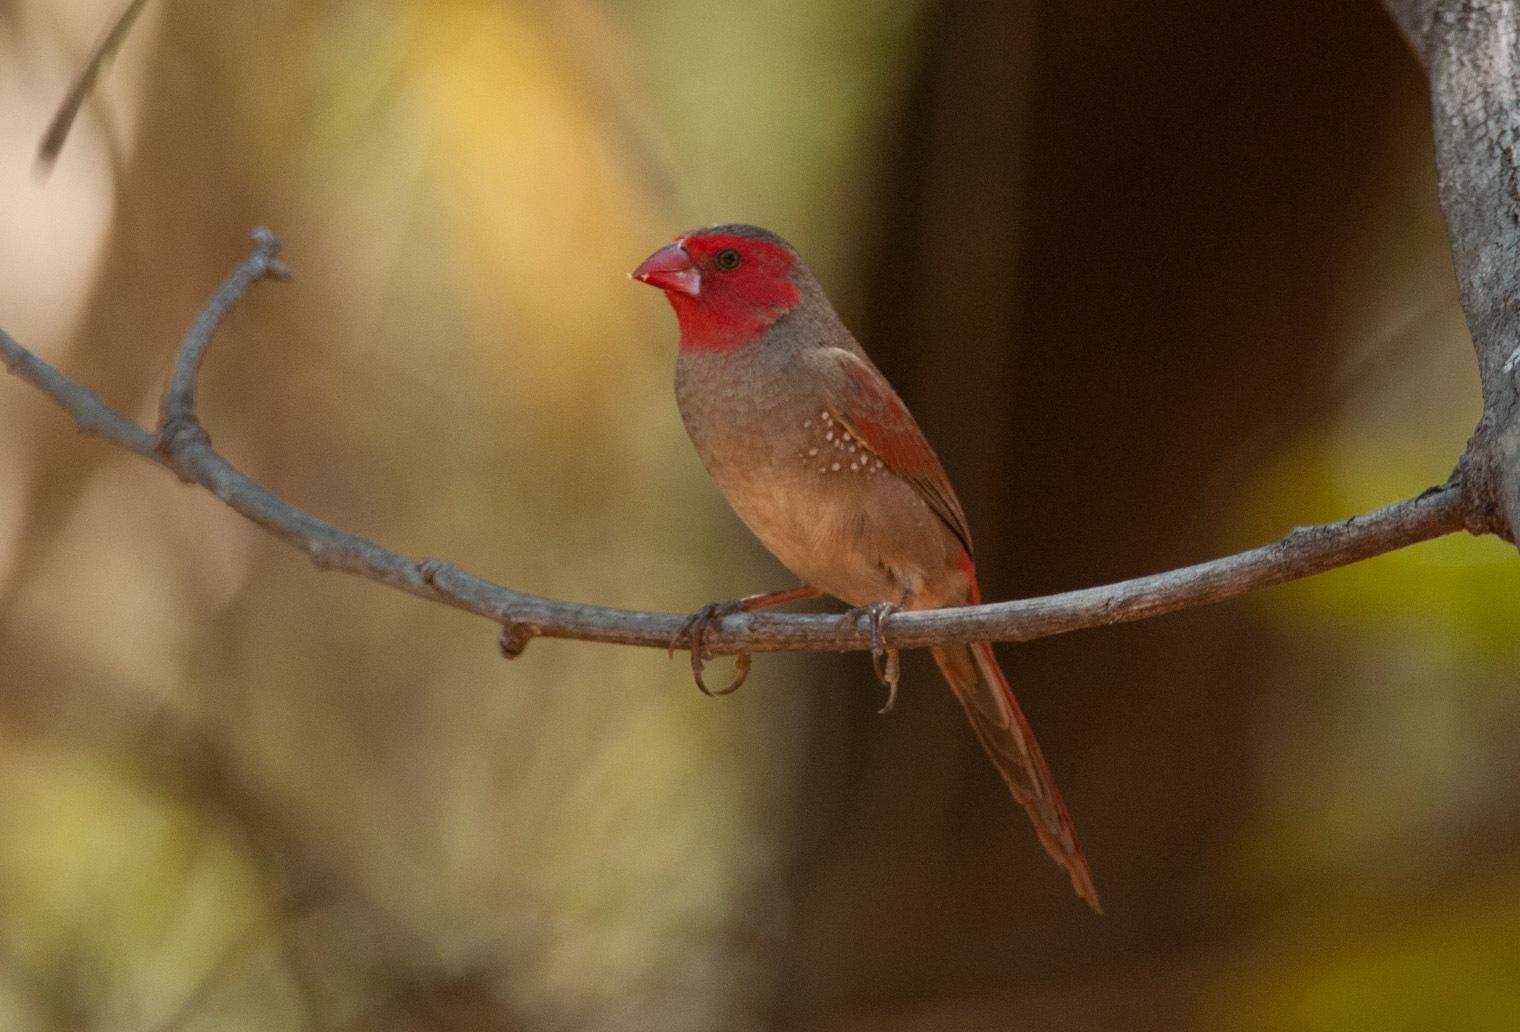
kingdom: Animalia
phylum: Chordata
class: Aves
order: Passeriformes
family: Estrildidae
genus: Neochmia
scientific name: Neochmia phaeton
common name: Crimson finch
